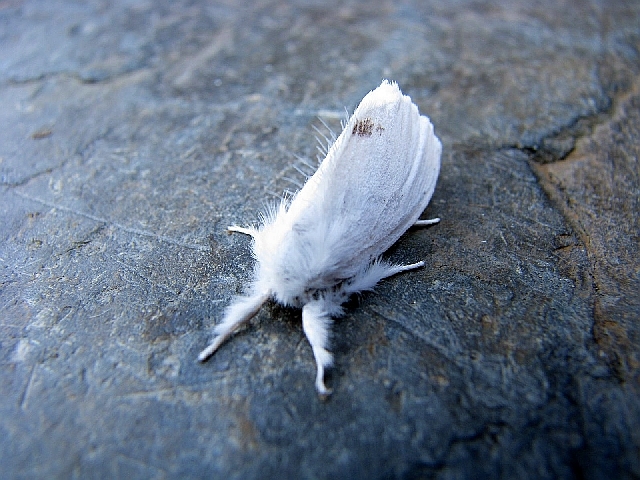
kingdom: Animalia
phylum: Arthropoda
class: Insecta
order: Lepidoptera
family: Erebidae
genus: Sphrageidus
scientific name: Sphrageidus similis
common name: Yellow-tail
